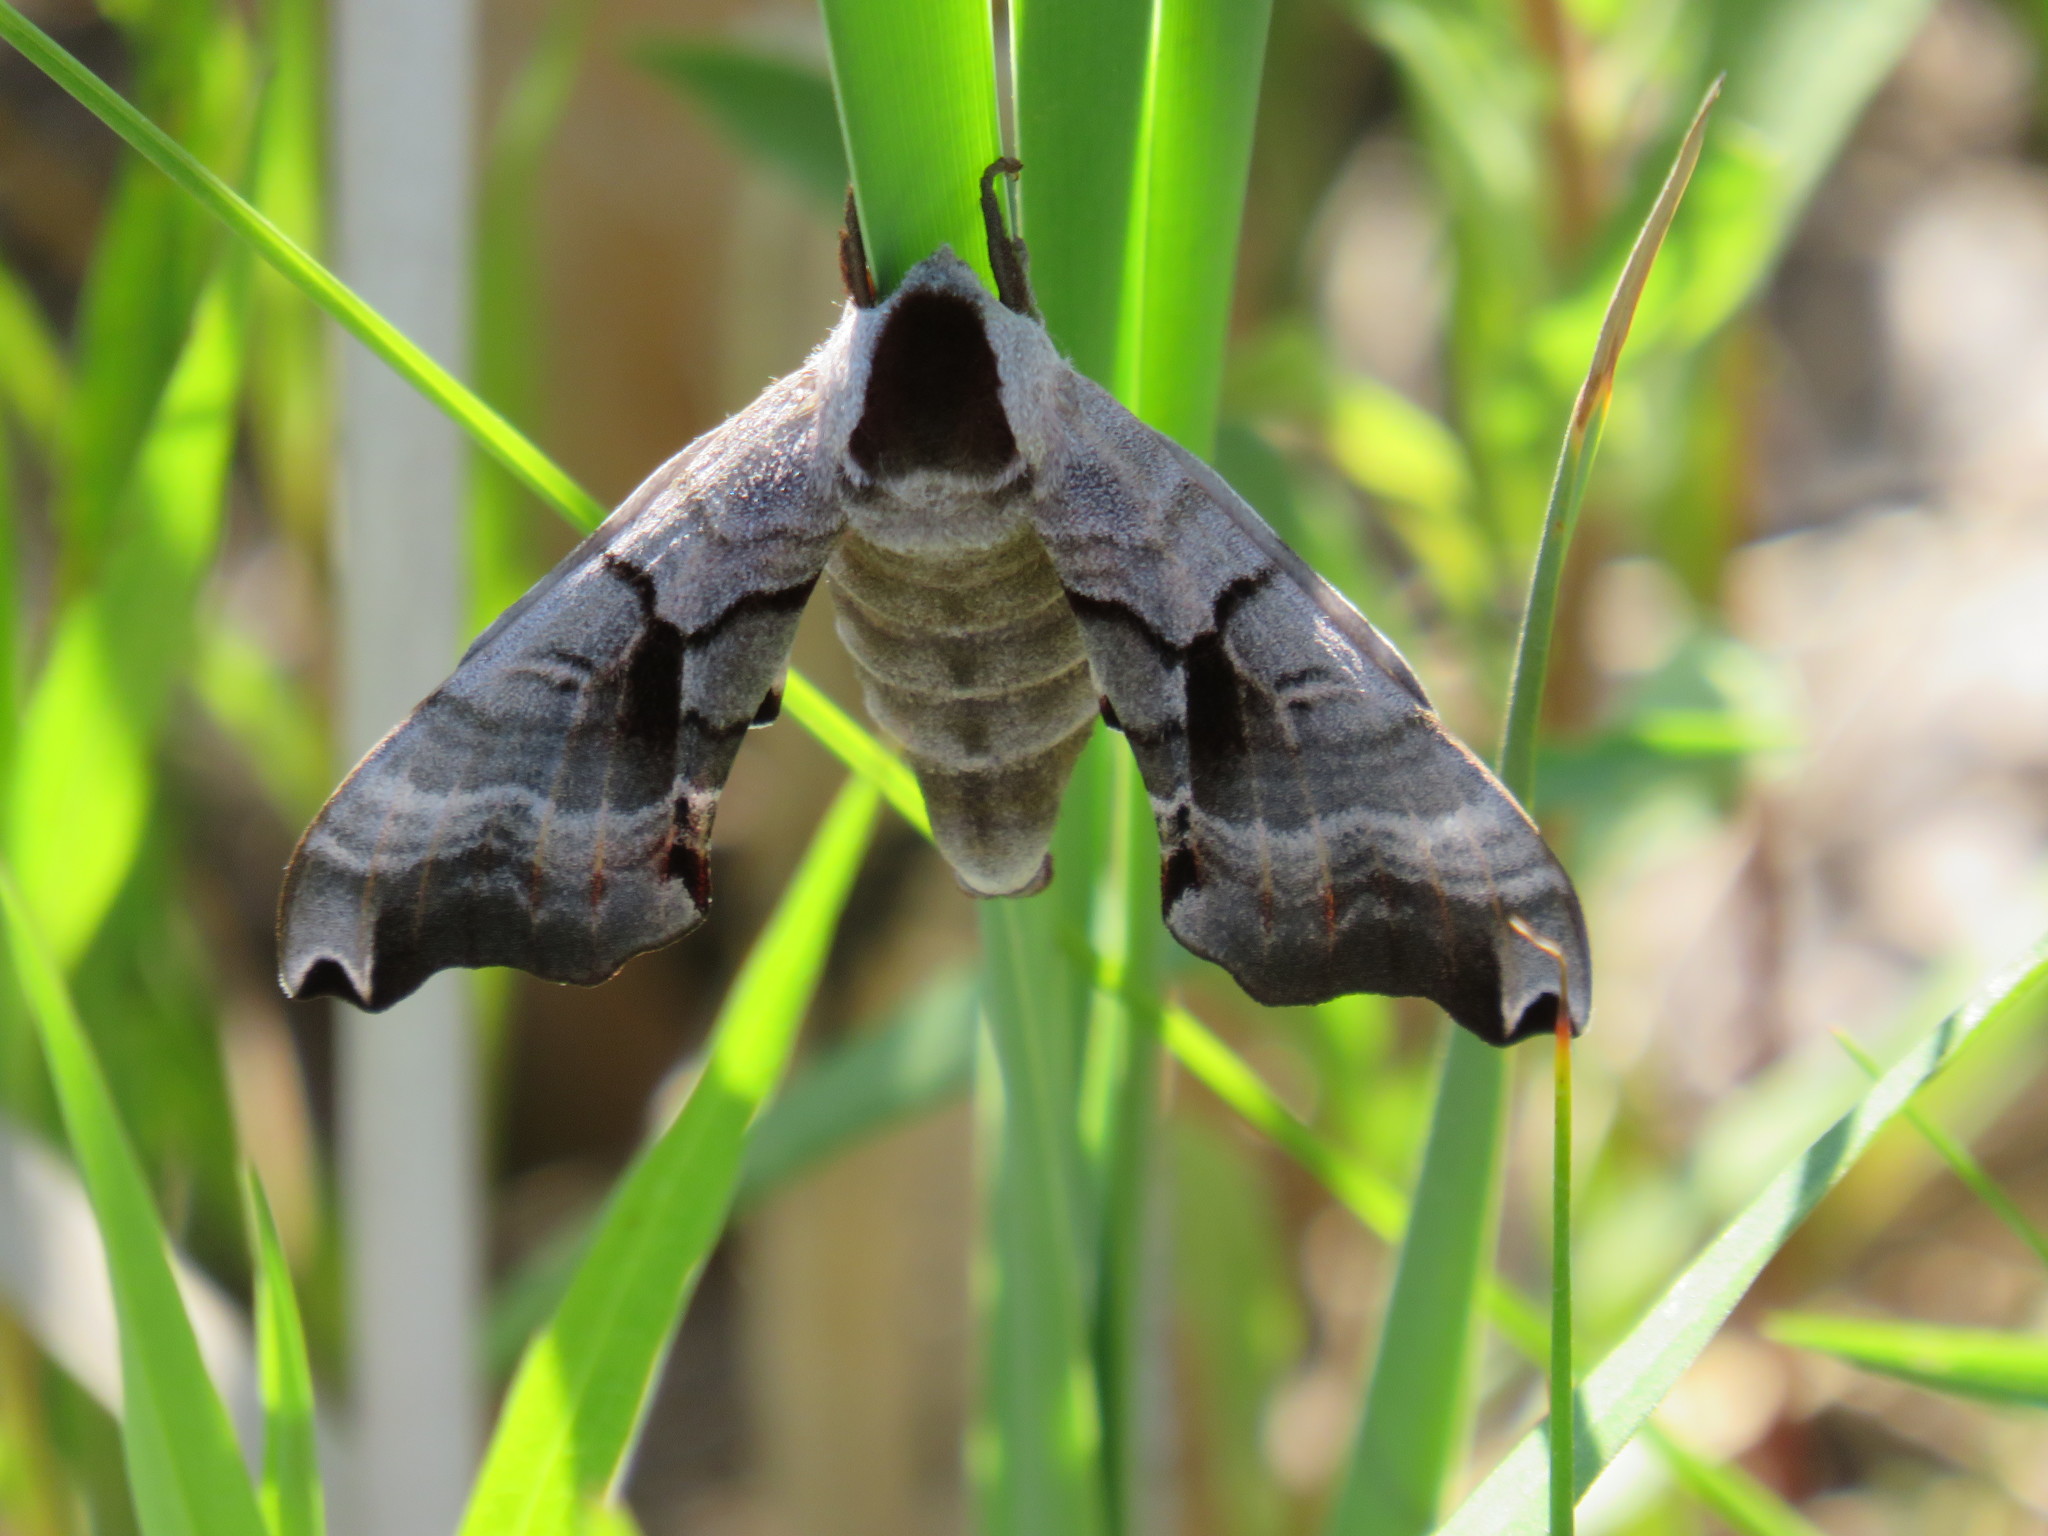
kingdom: Animalia
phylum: Arthropoda
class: Insecta
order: Lepidoptera
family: Sphingidae
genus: Smerinthus
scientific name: Smerinthus jamaicensis
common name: Twin spotted sphinx
